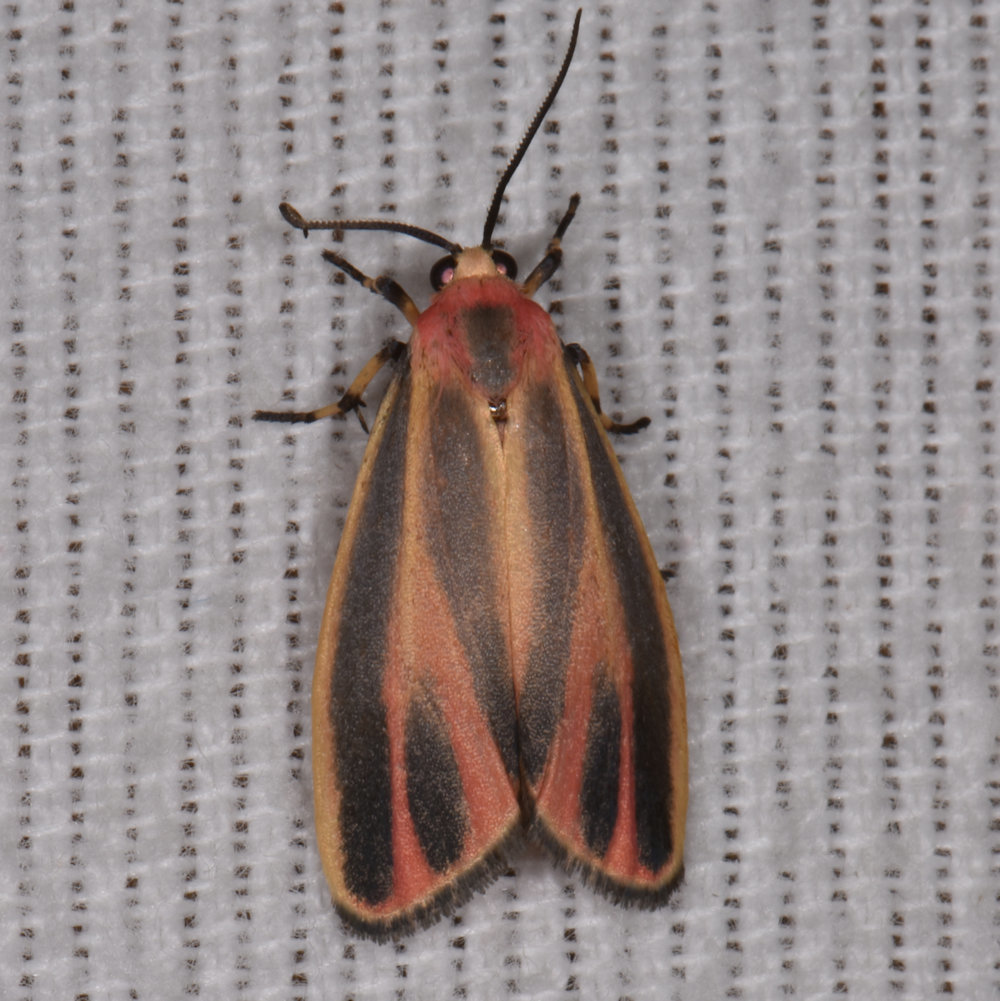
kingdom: Animalia
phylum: Arthropoda
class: Insecta
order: Lepidoptera
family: Erebidae
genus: Hypoprepia
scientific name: Hypoprepia fucosa
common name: Painted lichen moth
